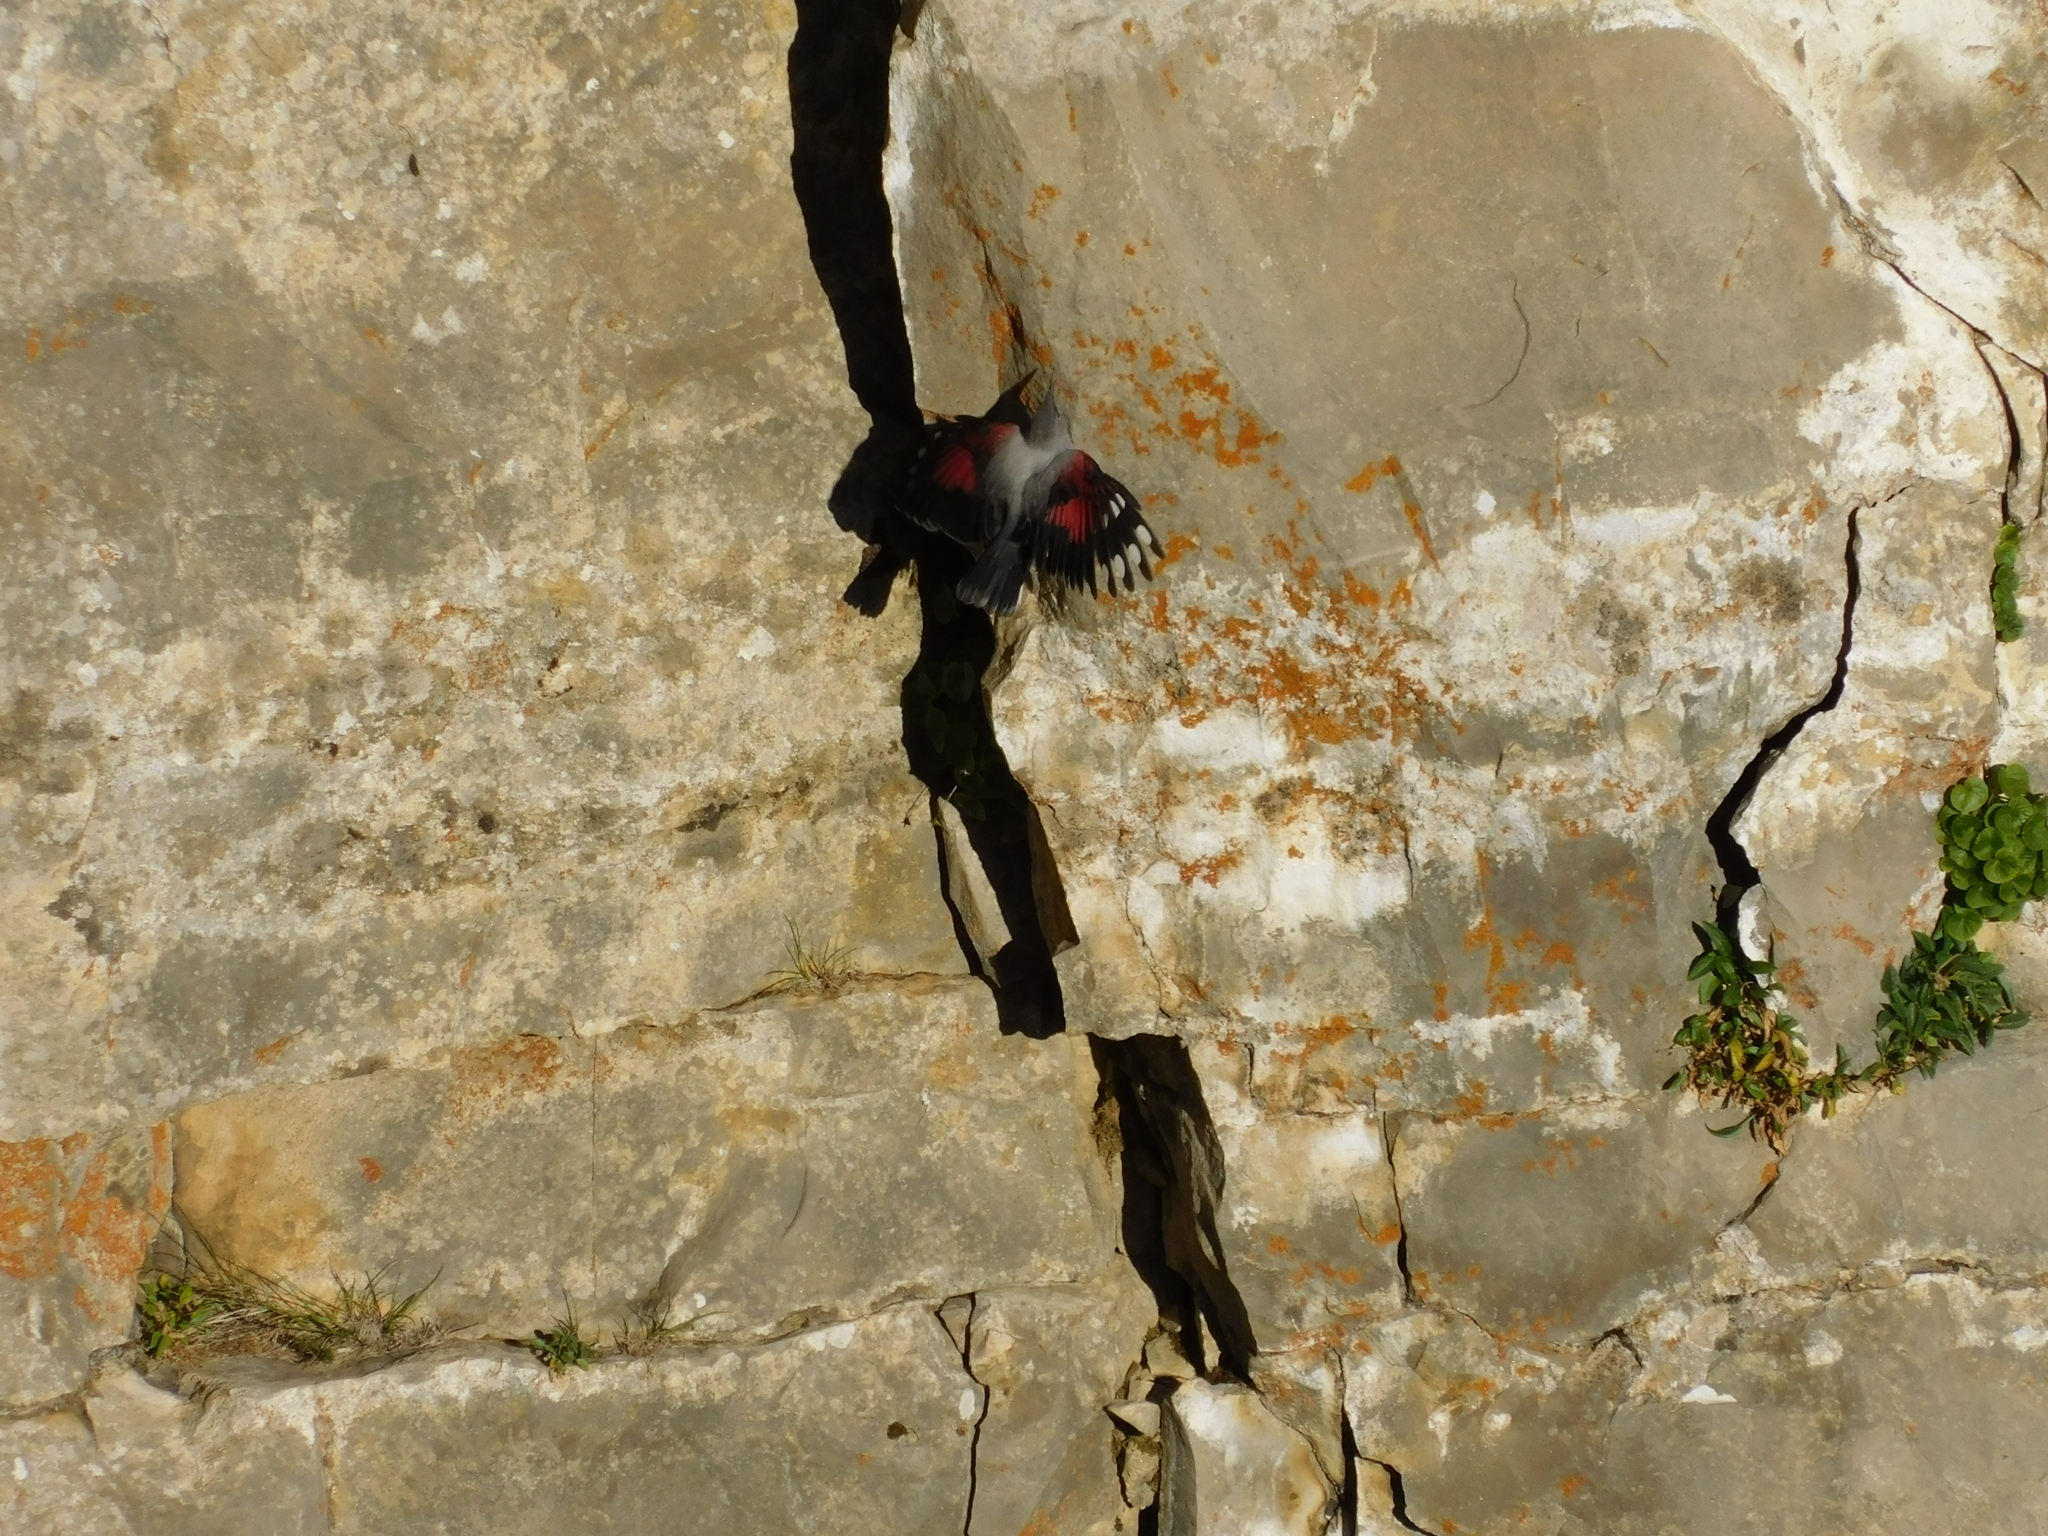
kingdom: Animalia
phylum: Chordata
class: Aves
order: Passeriformes
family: Tichodromidae
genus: Tichodroma
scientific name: Tichodroma muraria
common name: Wallcreeper
